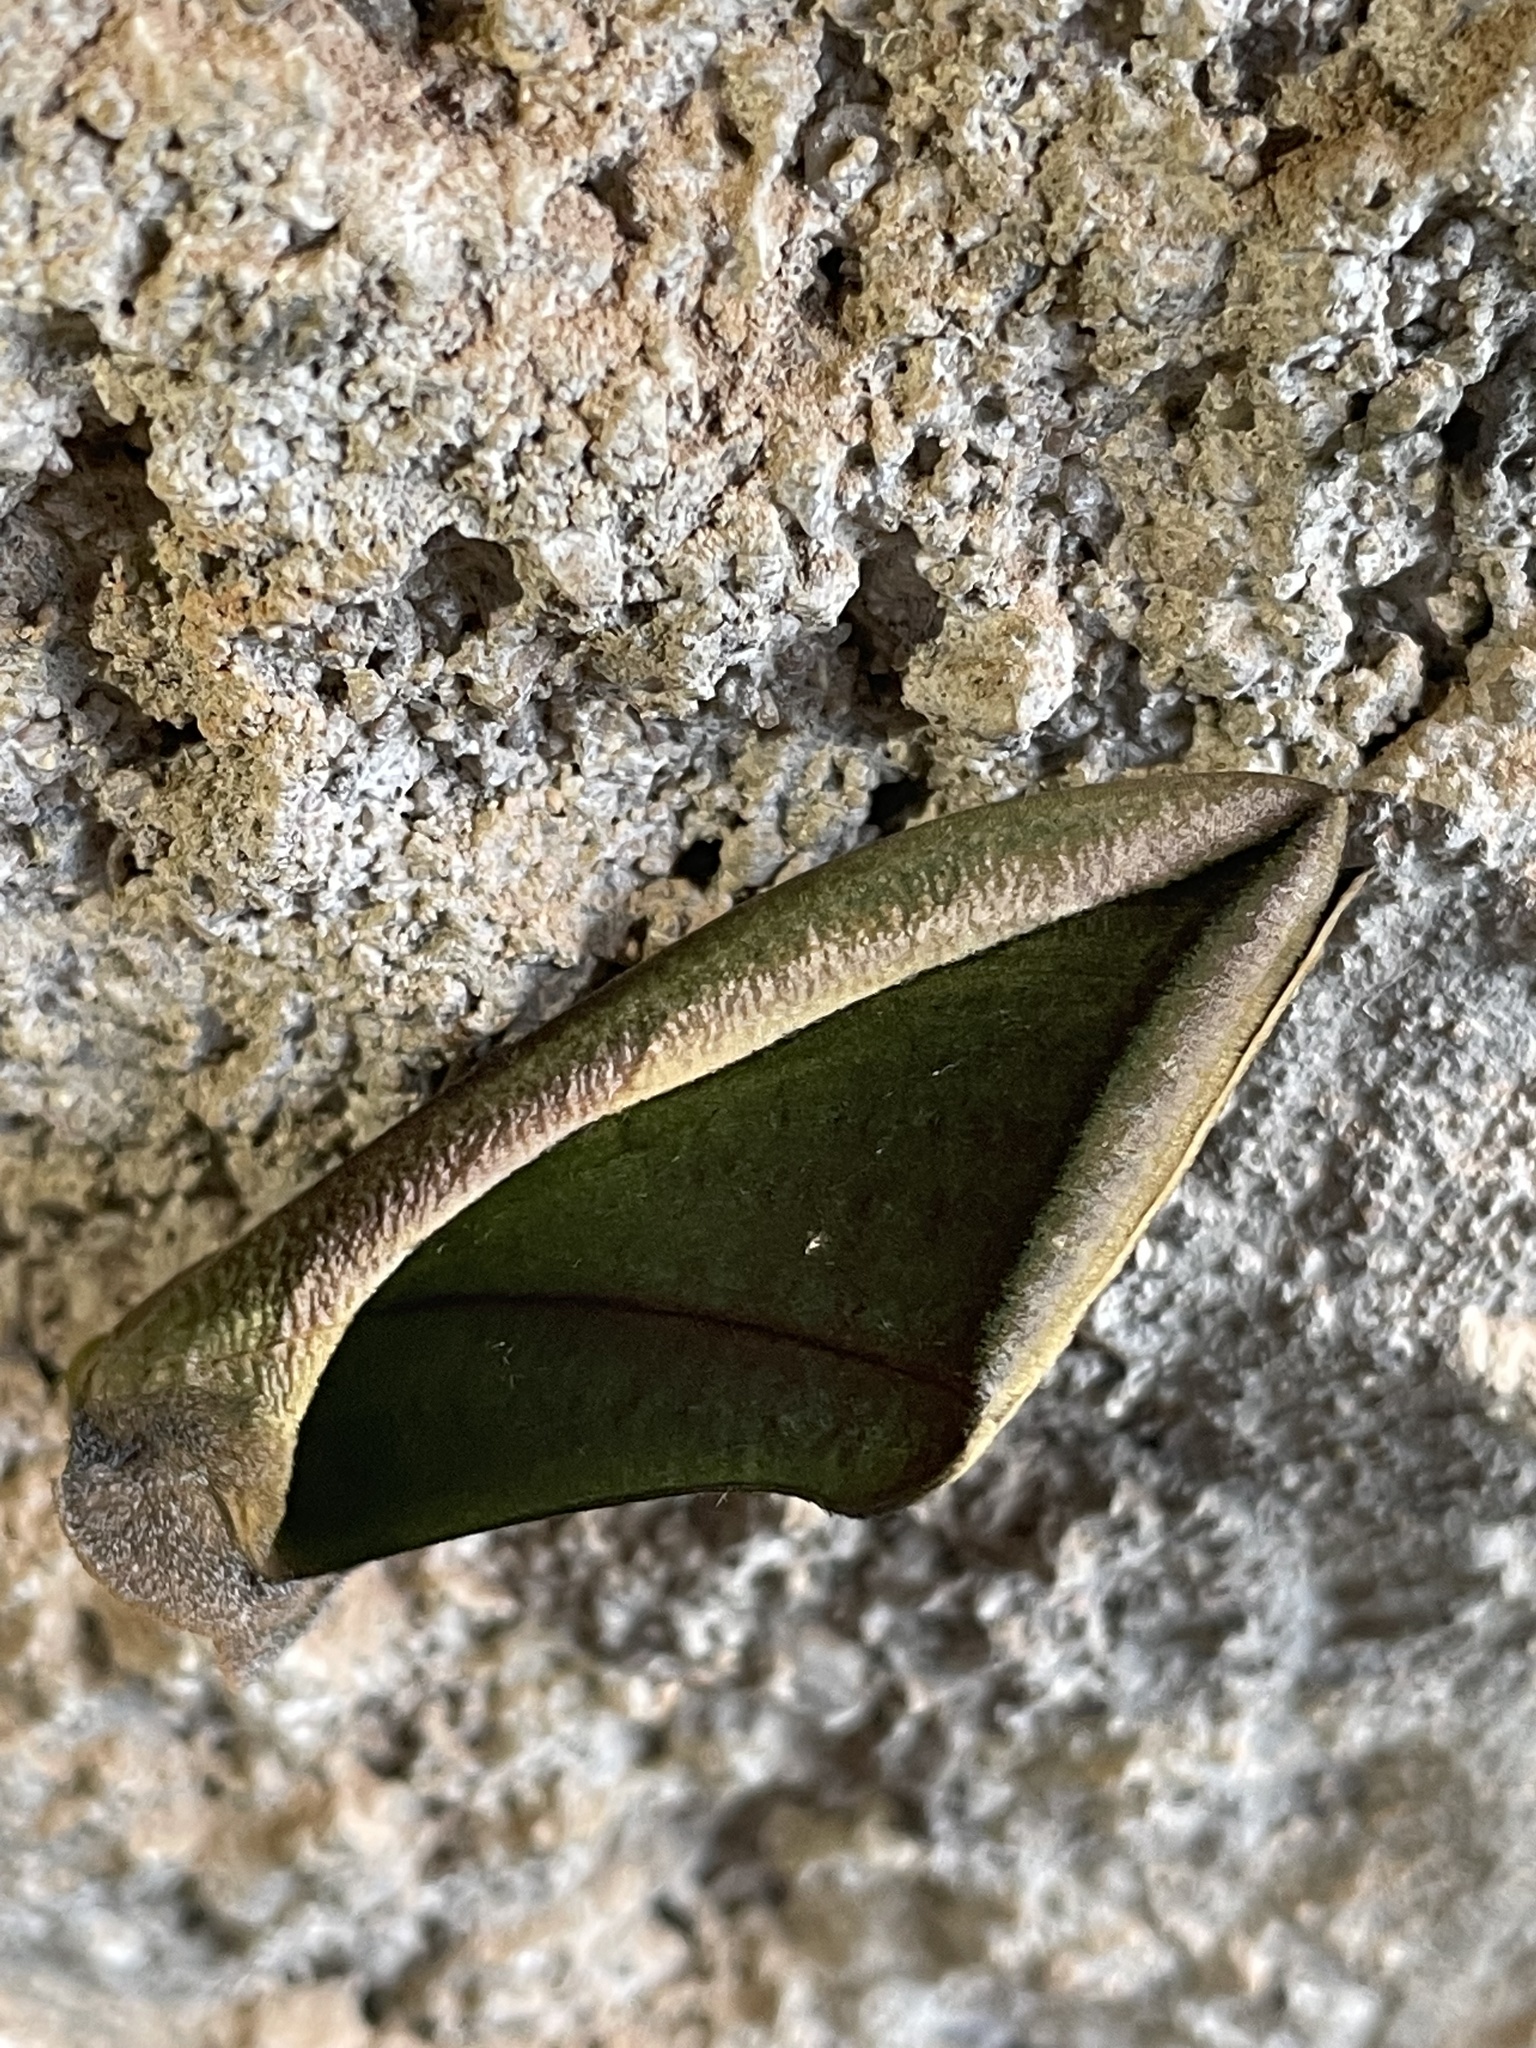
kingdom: Animalia
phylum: Arthropoda
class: Insecta
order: Lepidoptera
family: Erebidae
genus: Eudocima
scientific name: Eudocima salaminia
